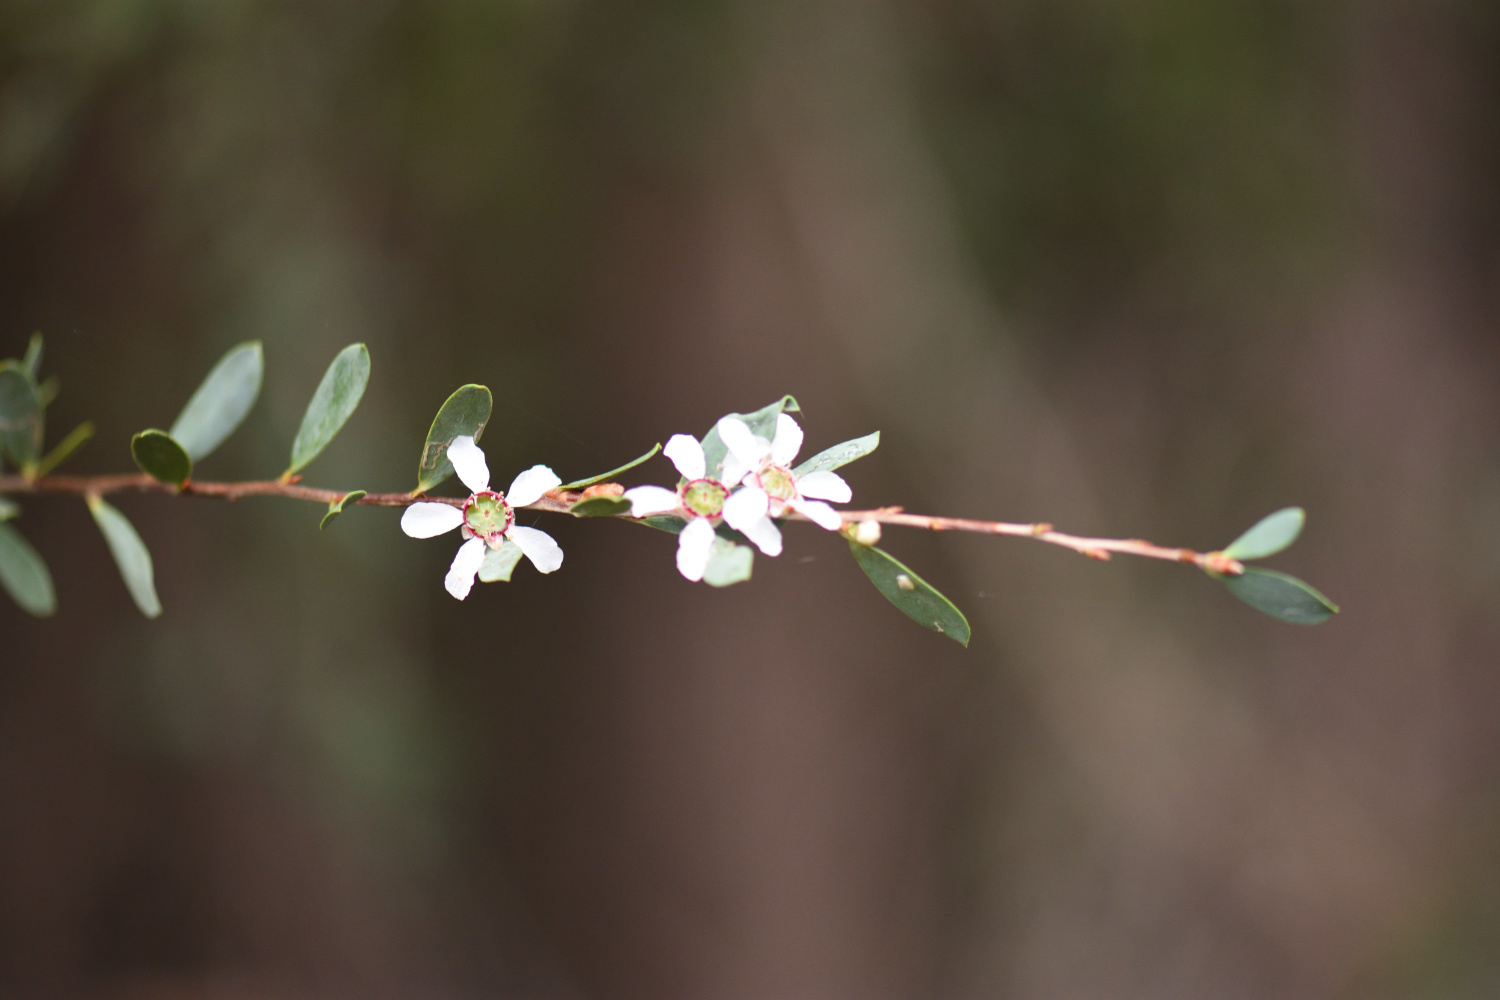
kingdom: Plantae
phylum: Tracheophyta
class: Magnoliopsida
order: Myrtales
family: Myrtaceae
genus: Leptospermum
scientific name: Leptospermum laevigatum
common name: Australian teatree
